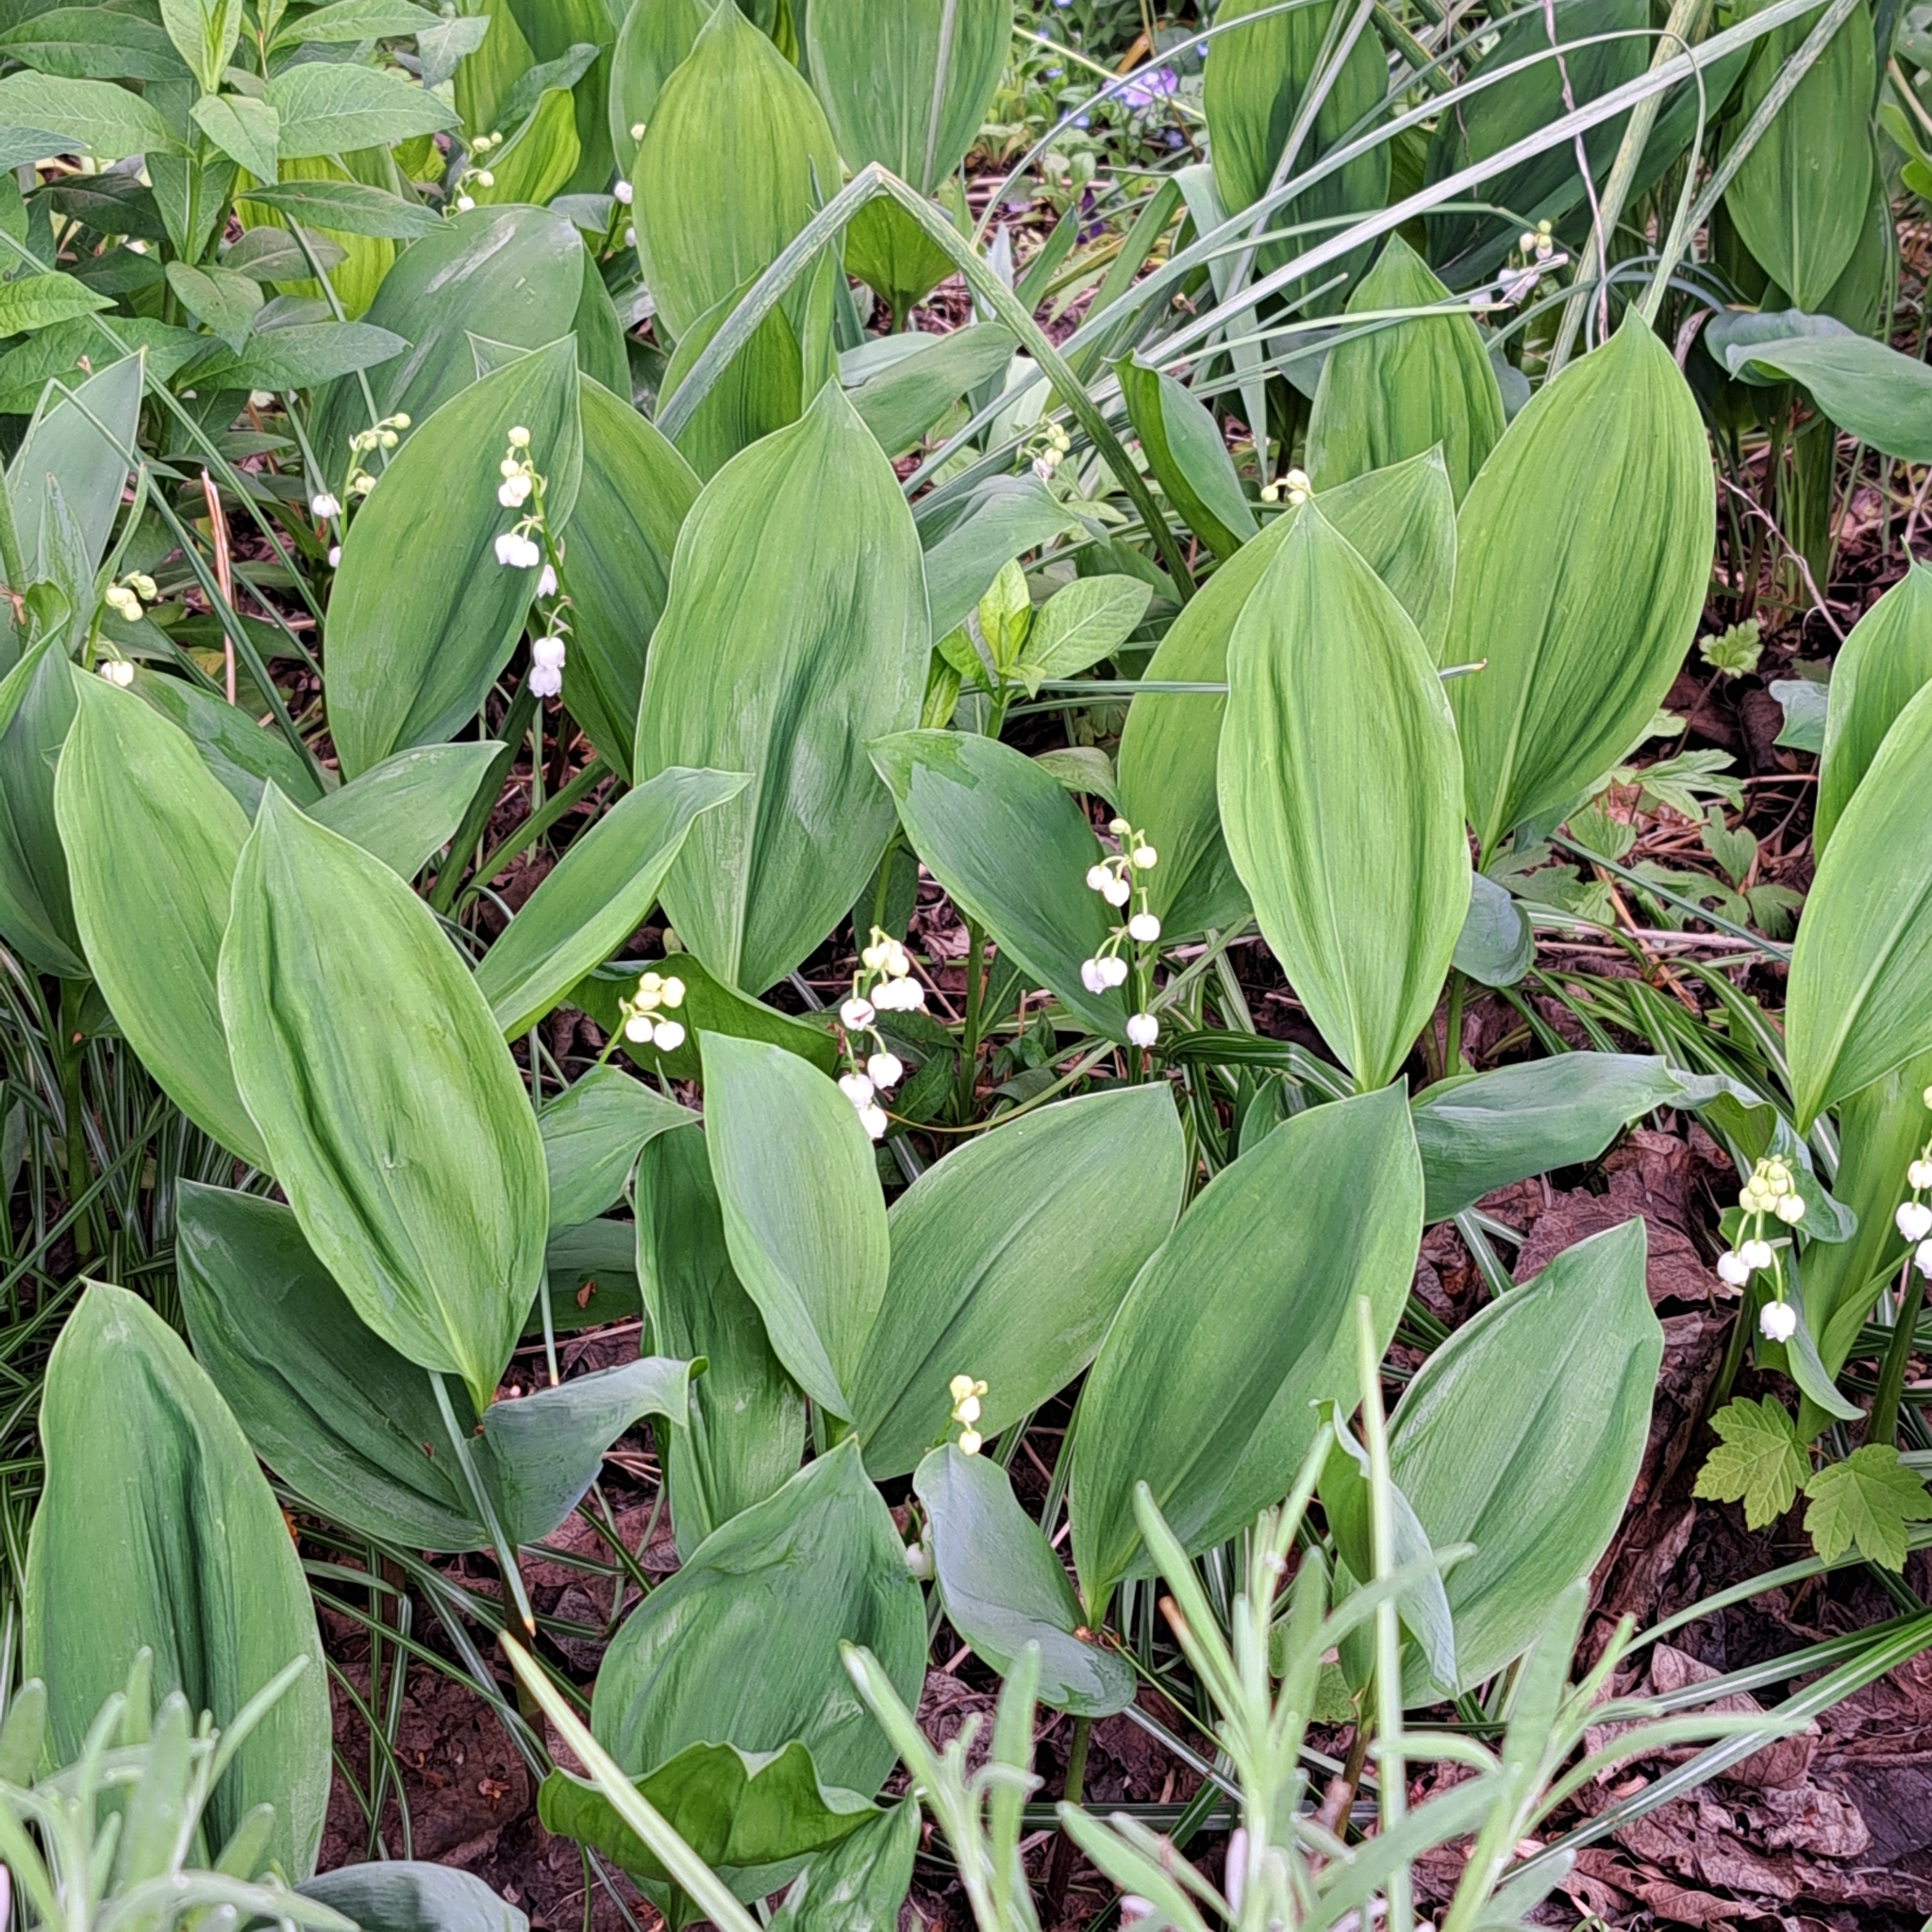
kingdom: Plantae
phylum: Tracheophyta
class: Liliopsida
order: Asparagales
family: Asparagaceae
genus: Convallaria
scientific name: Convallaria majalis
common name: Lily-of-the-valley
